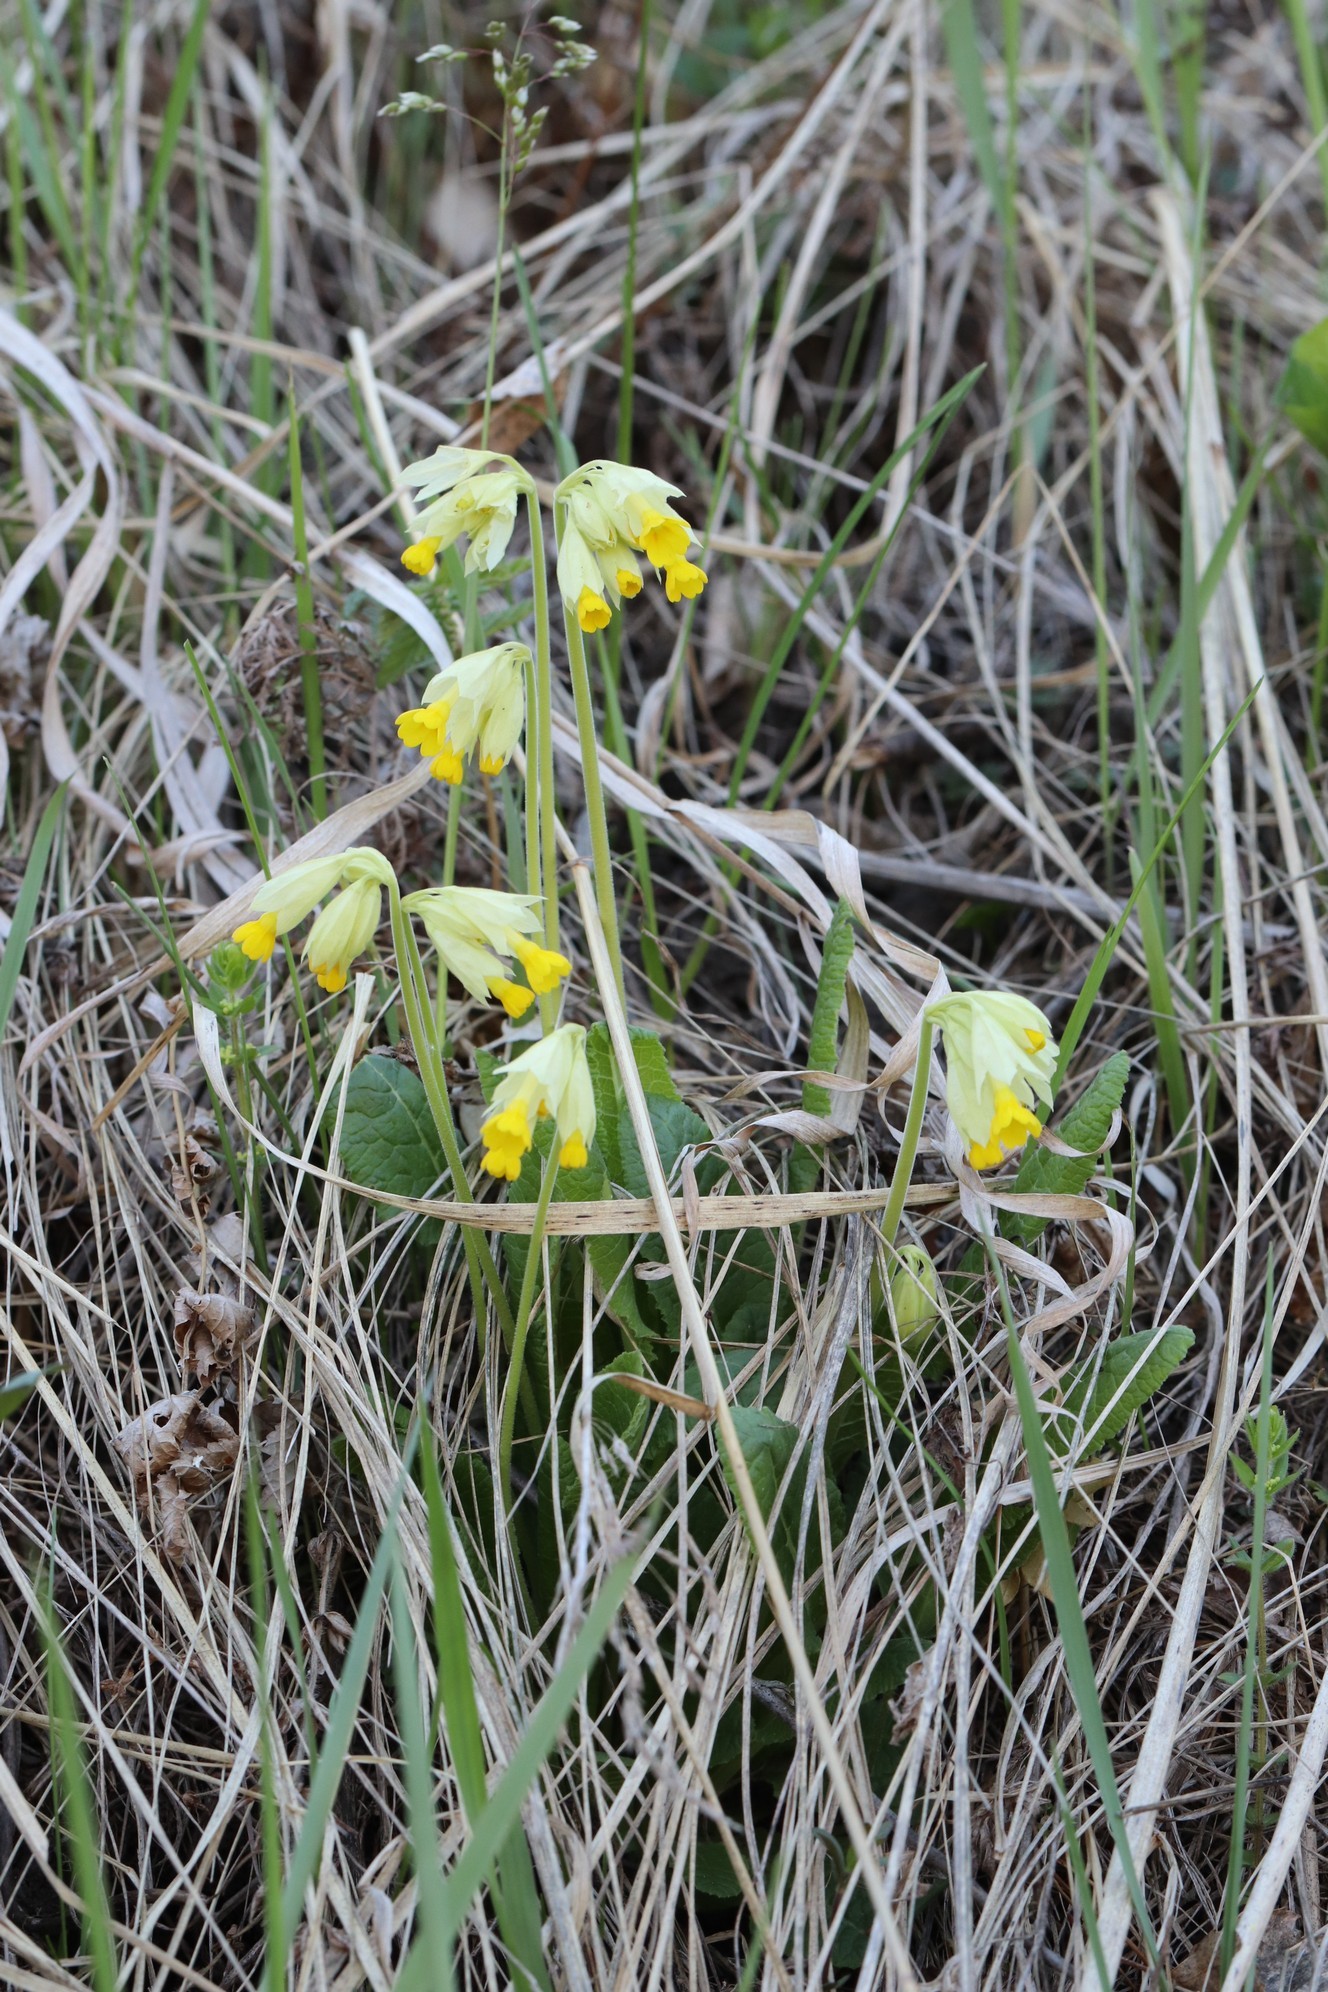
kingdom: Plantae
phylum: Tracheophyta
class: Magnoliopsida
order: Ericales
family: Primulaceae
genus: Primula
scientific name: Primula veris
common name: Cowslip
